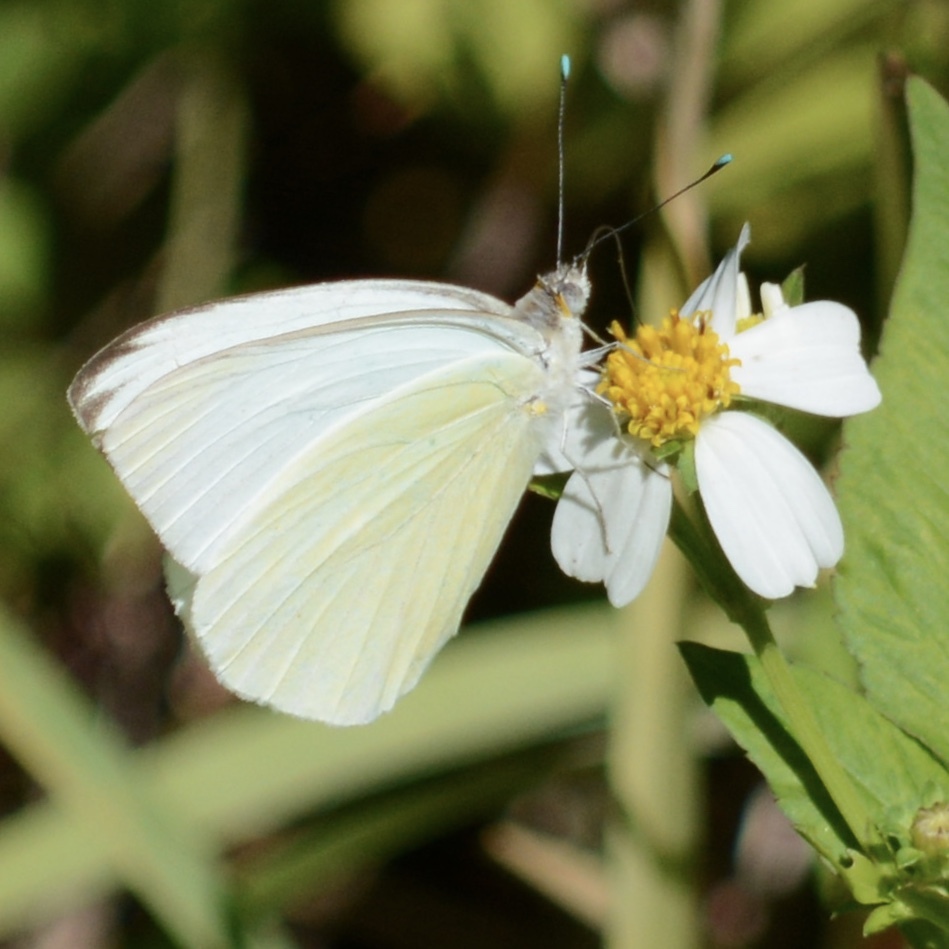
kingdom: Animalia
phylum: Arthropoda
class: Insecta
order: Lepidoptera
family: Pieridae
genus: Ascia
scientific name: Ascia monuste
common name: Great southern white
